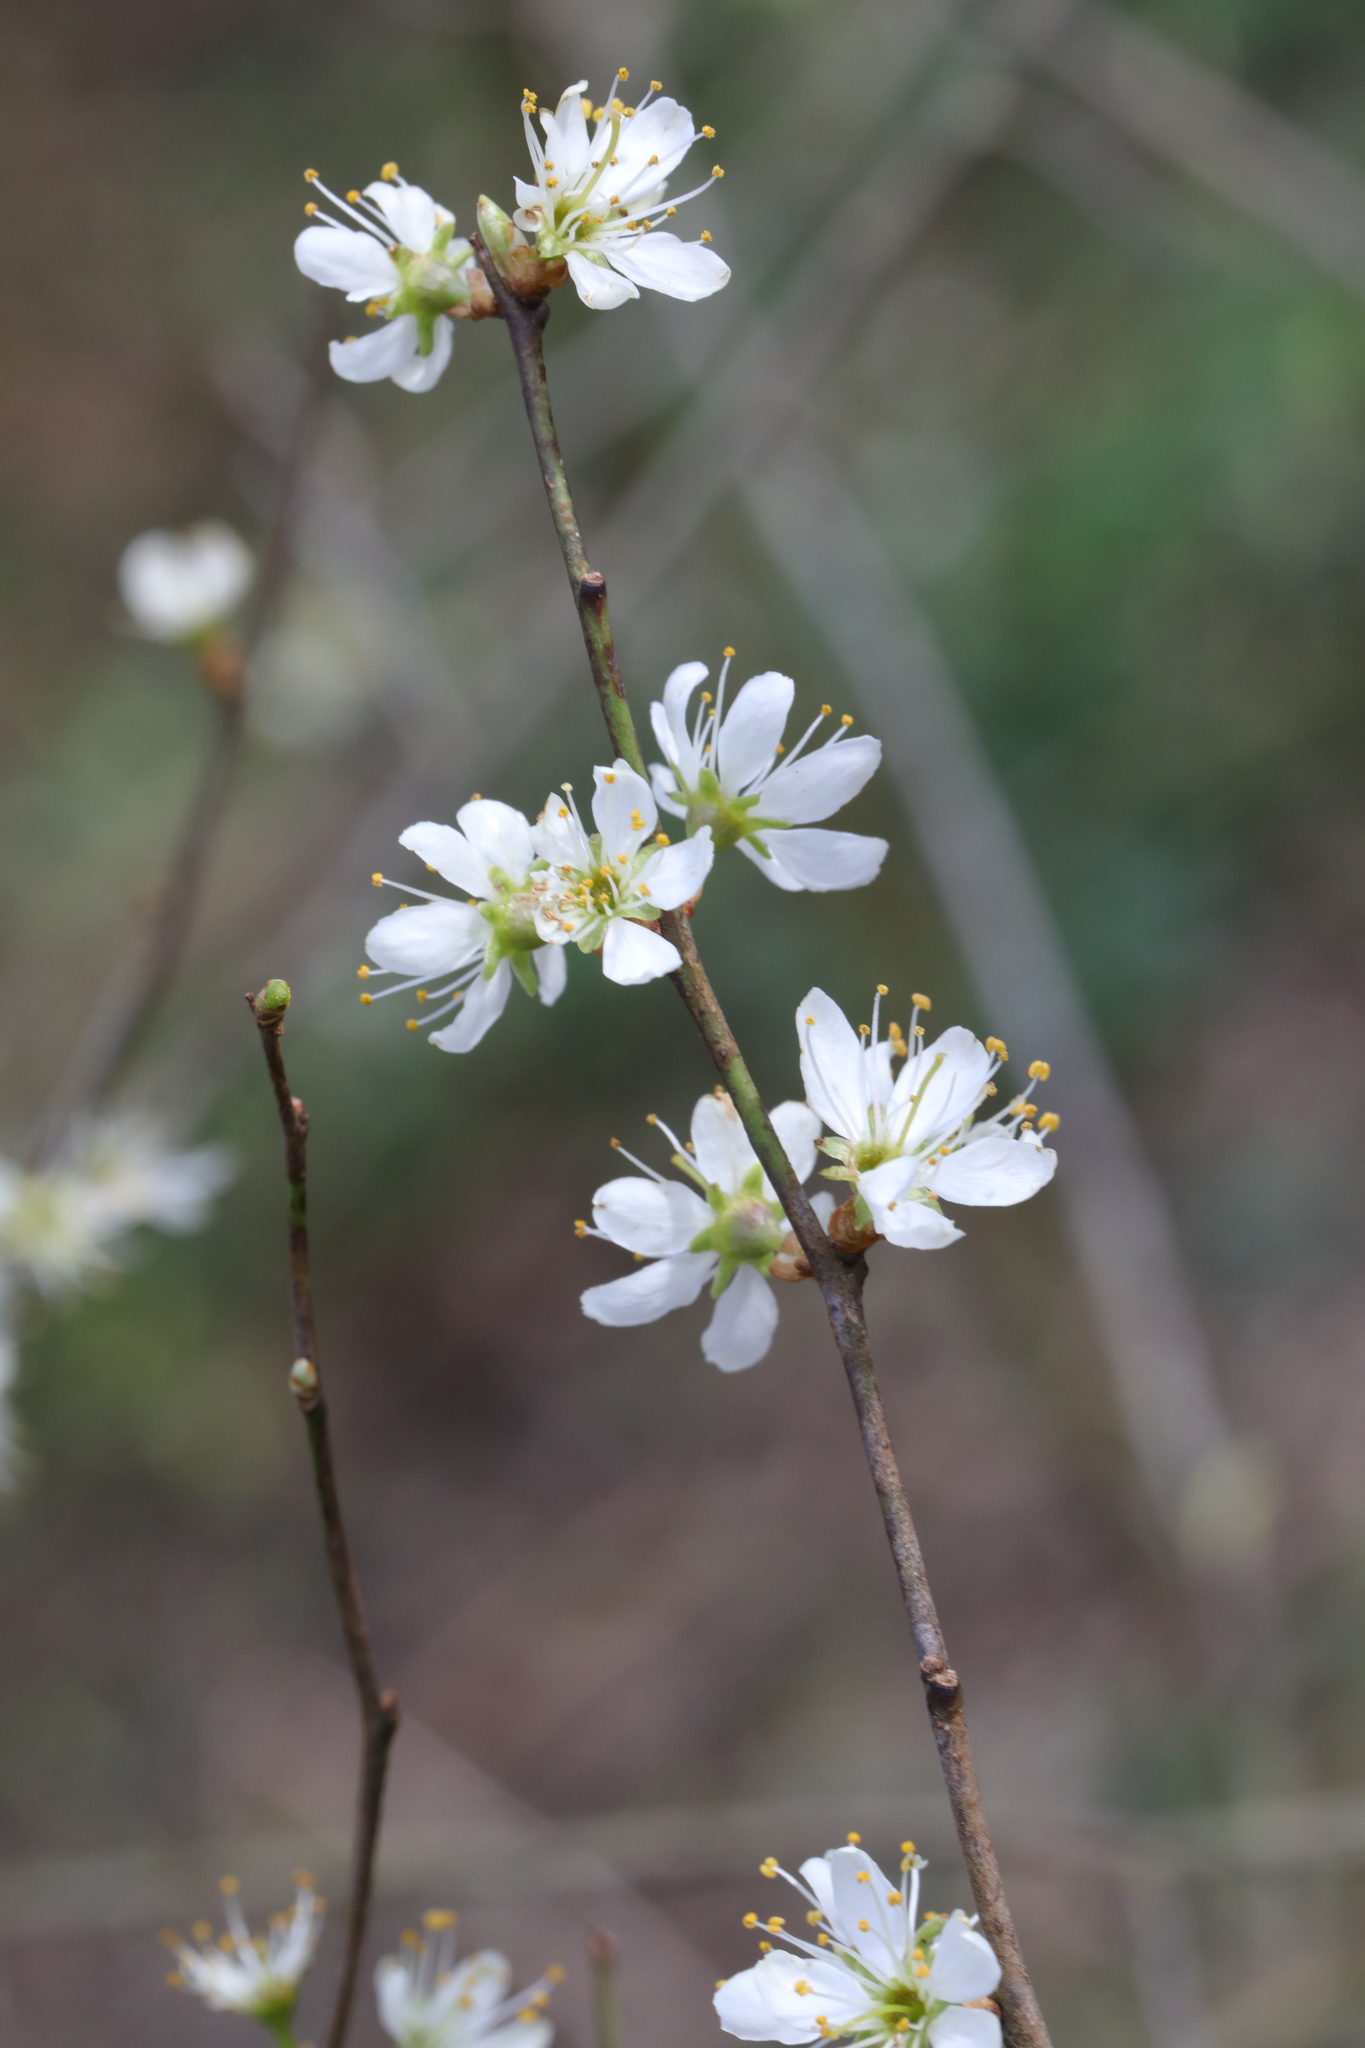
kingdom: Plantae
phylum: Tracheophyta
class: Magnoliopsida
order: Rosales
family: Rosaceae
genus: Prunus
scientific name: Prunus spinosa
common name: Blackthorn
